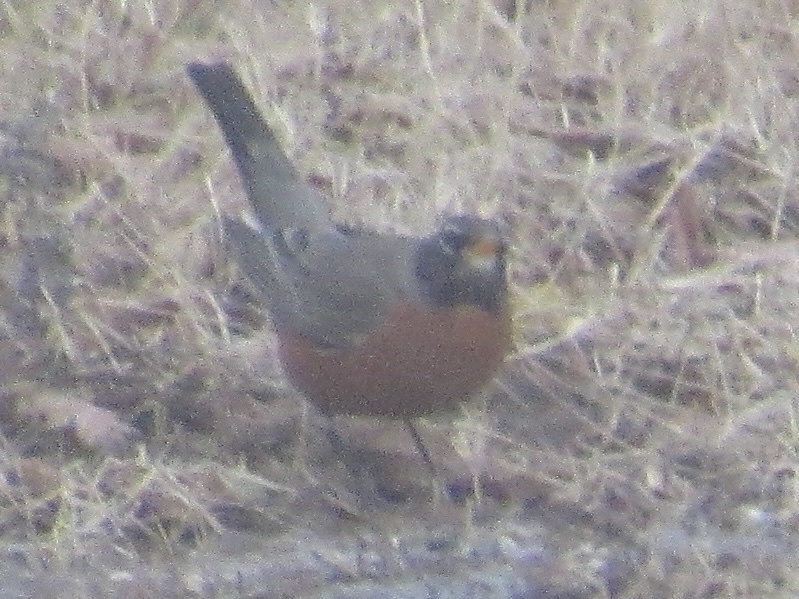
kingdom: Animalia
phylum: Chordata
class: Aves
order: Passeriformes
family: Turdidae
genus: Turdus
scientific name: Turdus migratorius
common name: American robin
